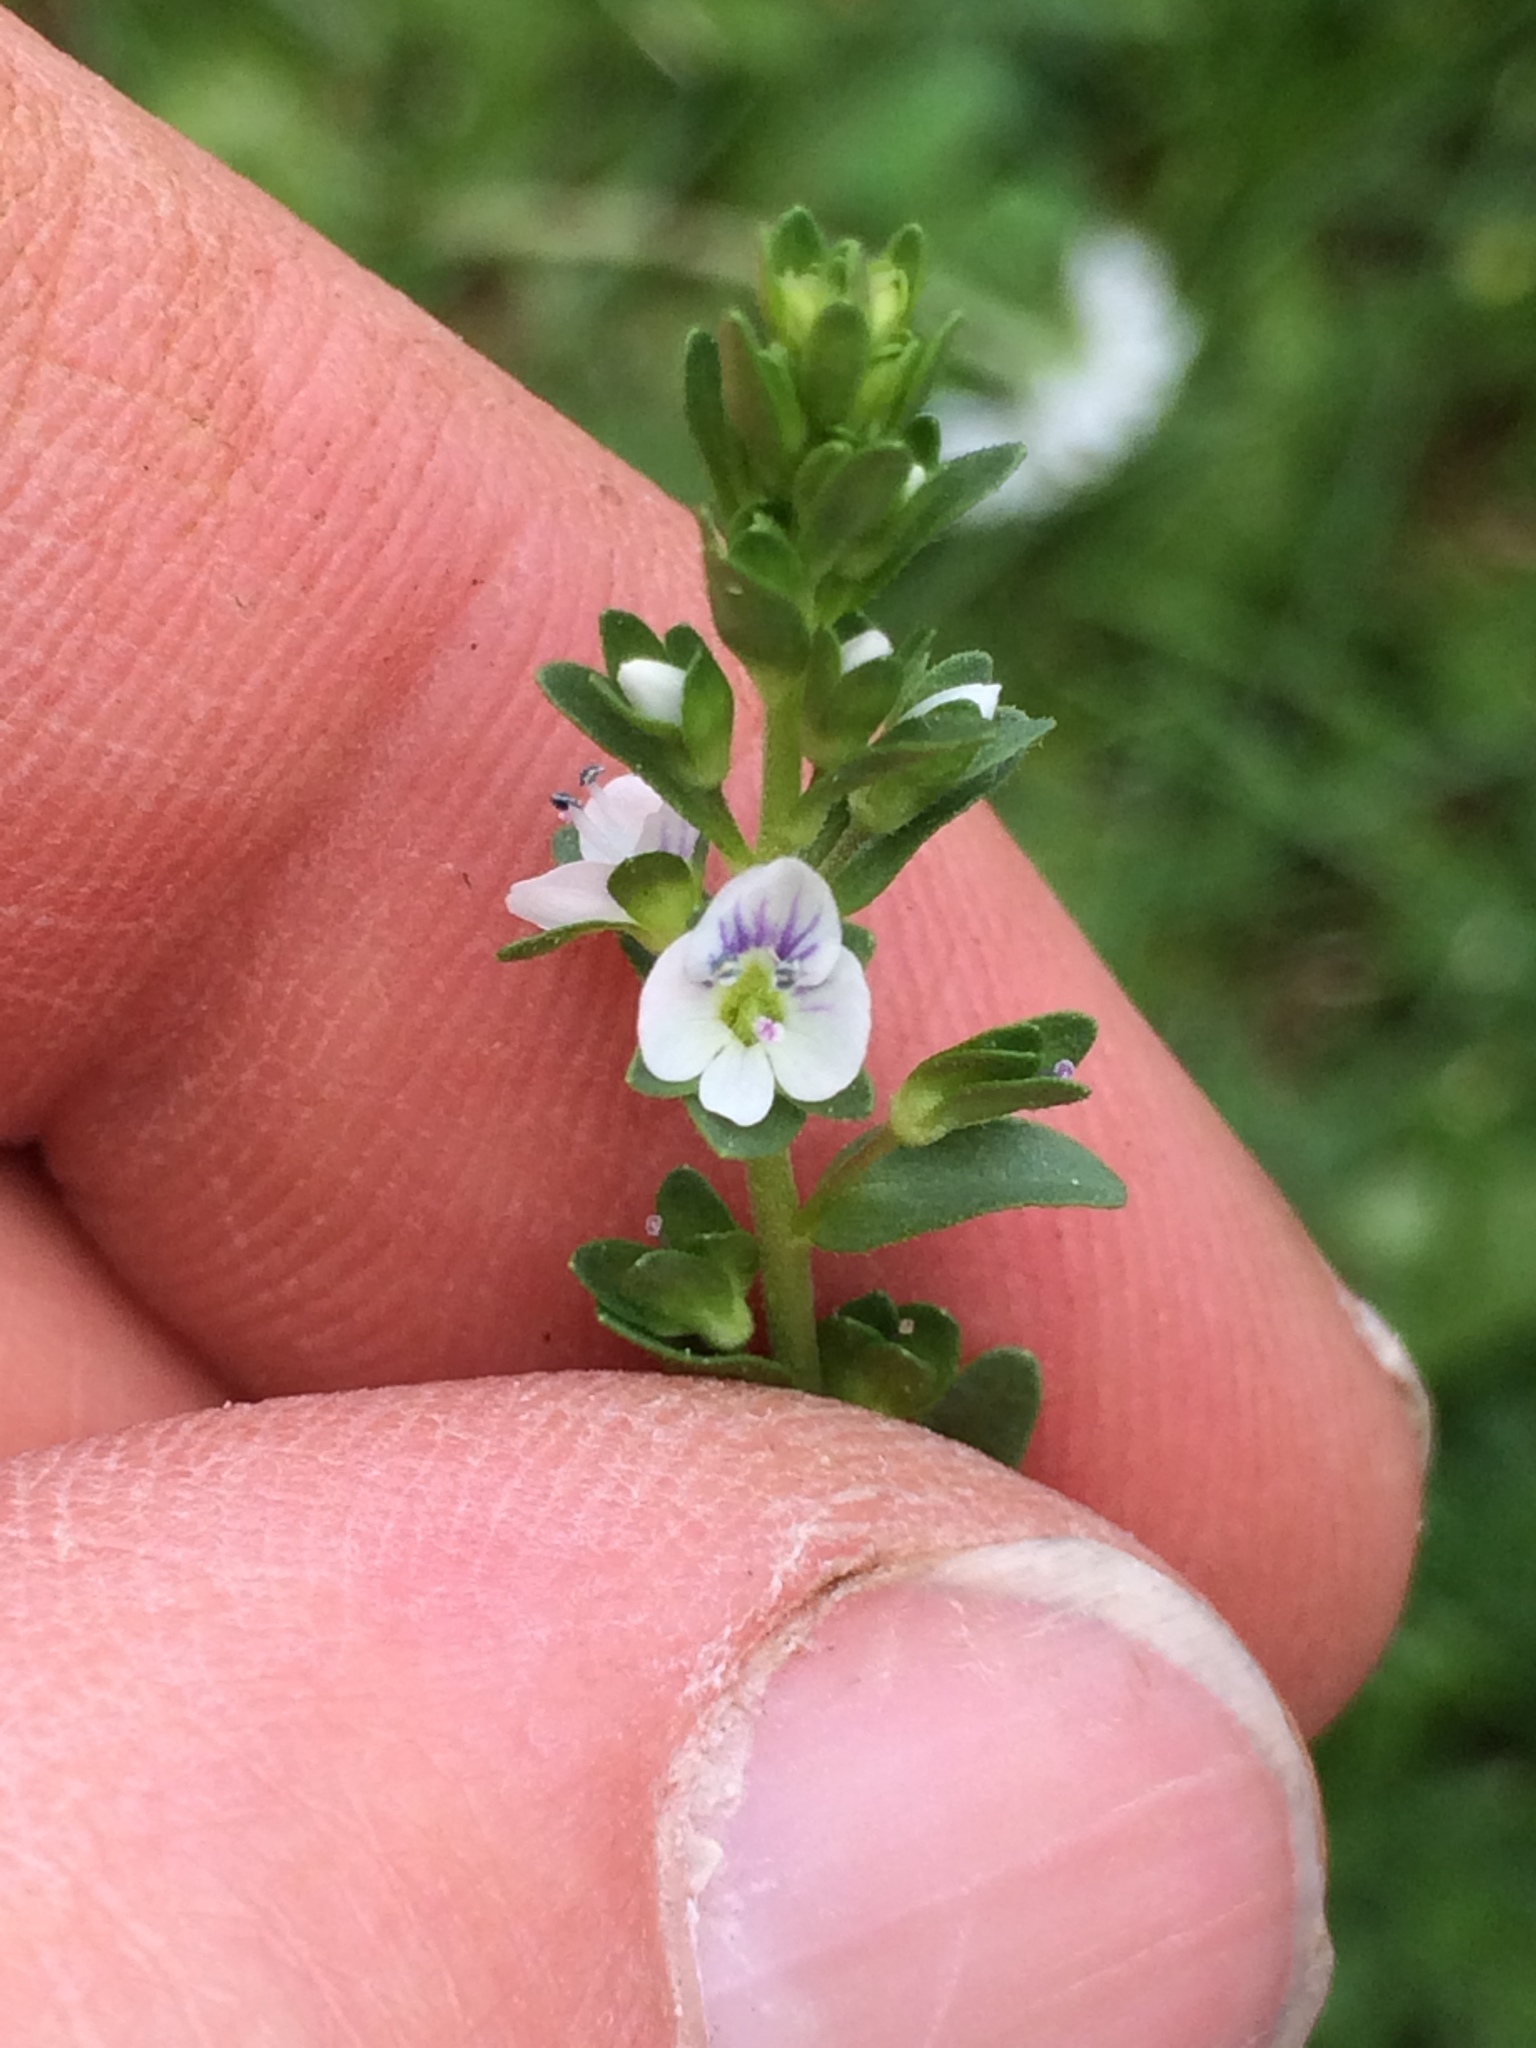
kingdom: Plantae
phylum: Tracheophyta
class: Magnoliopsida
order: Lamiales
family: Plantaginaceae
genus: Veronica
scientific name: Veronica serpyllifolia
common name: Thyme-leaved speedwell
